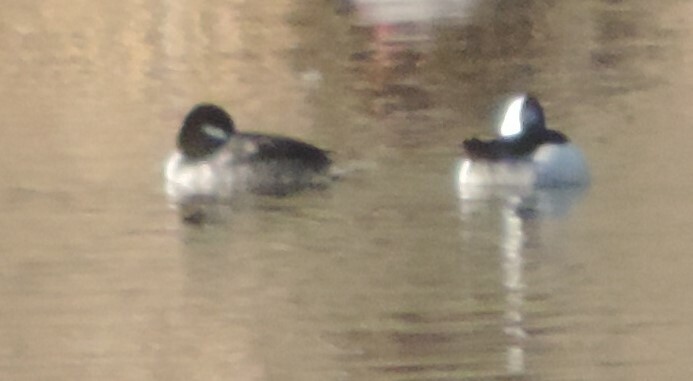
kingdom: Animalia
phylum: Chordata
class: Aves
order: Anseriformes
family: Anatidae
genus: Bucephala
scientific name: Bucephala albeola
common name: Bufflehead
